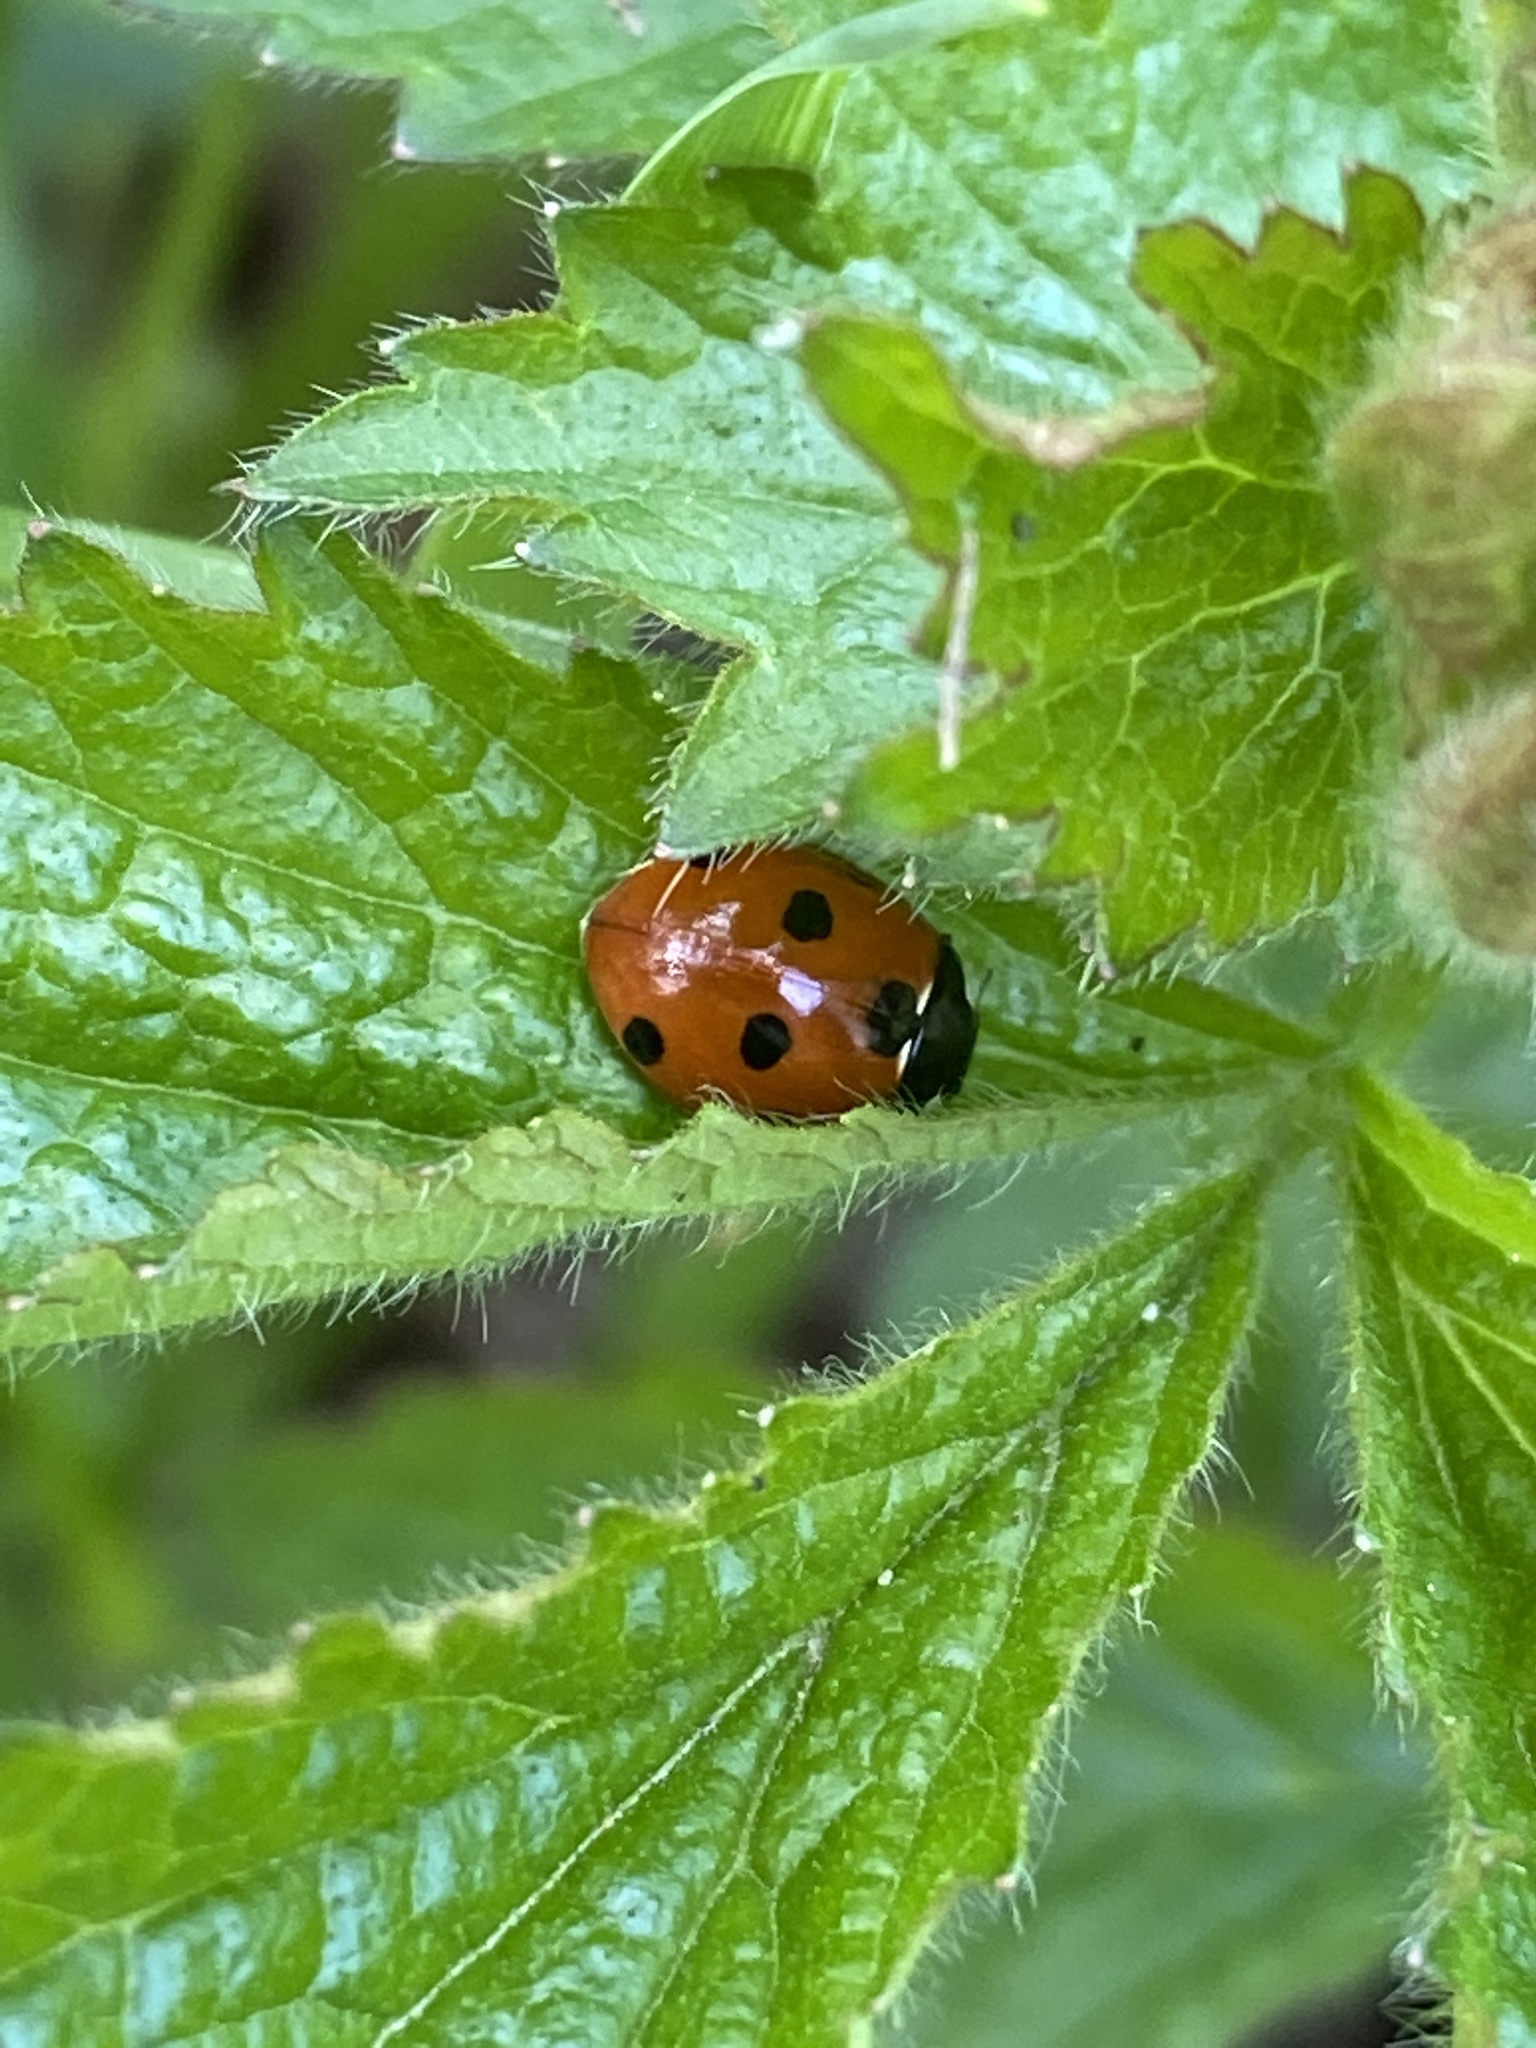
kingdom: Animalia
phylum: Arthropoda
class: Insecta
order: Coleoptera
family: Coccinellidae
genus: Coccinella
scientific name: Coccinella septempunctata
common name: Sevenspotted lady beetle
